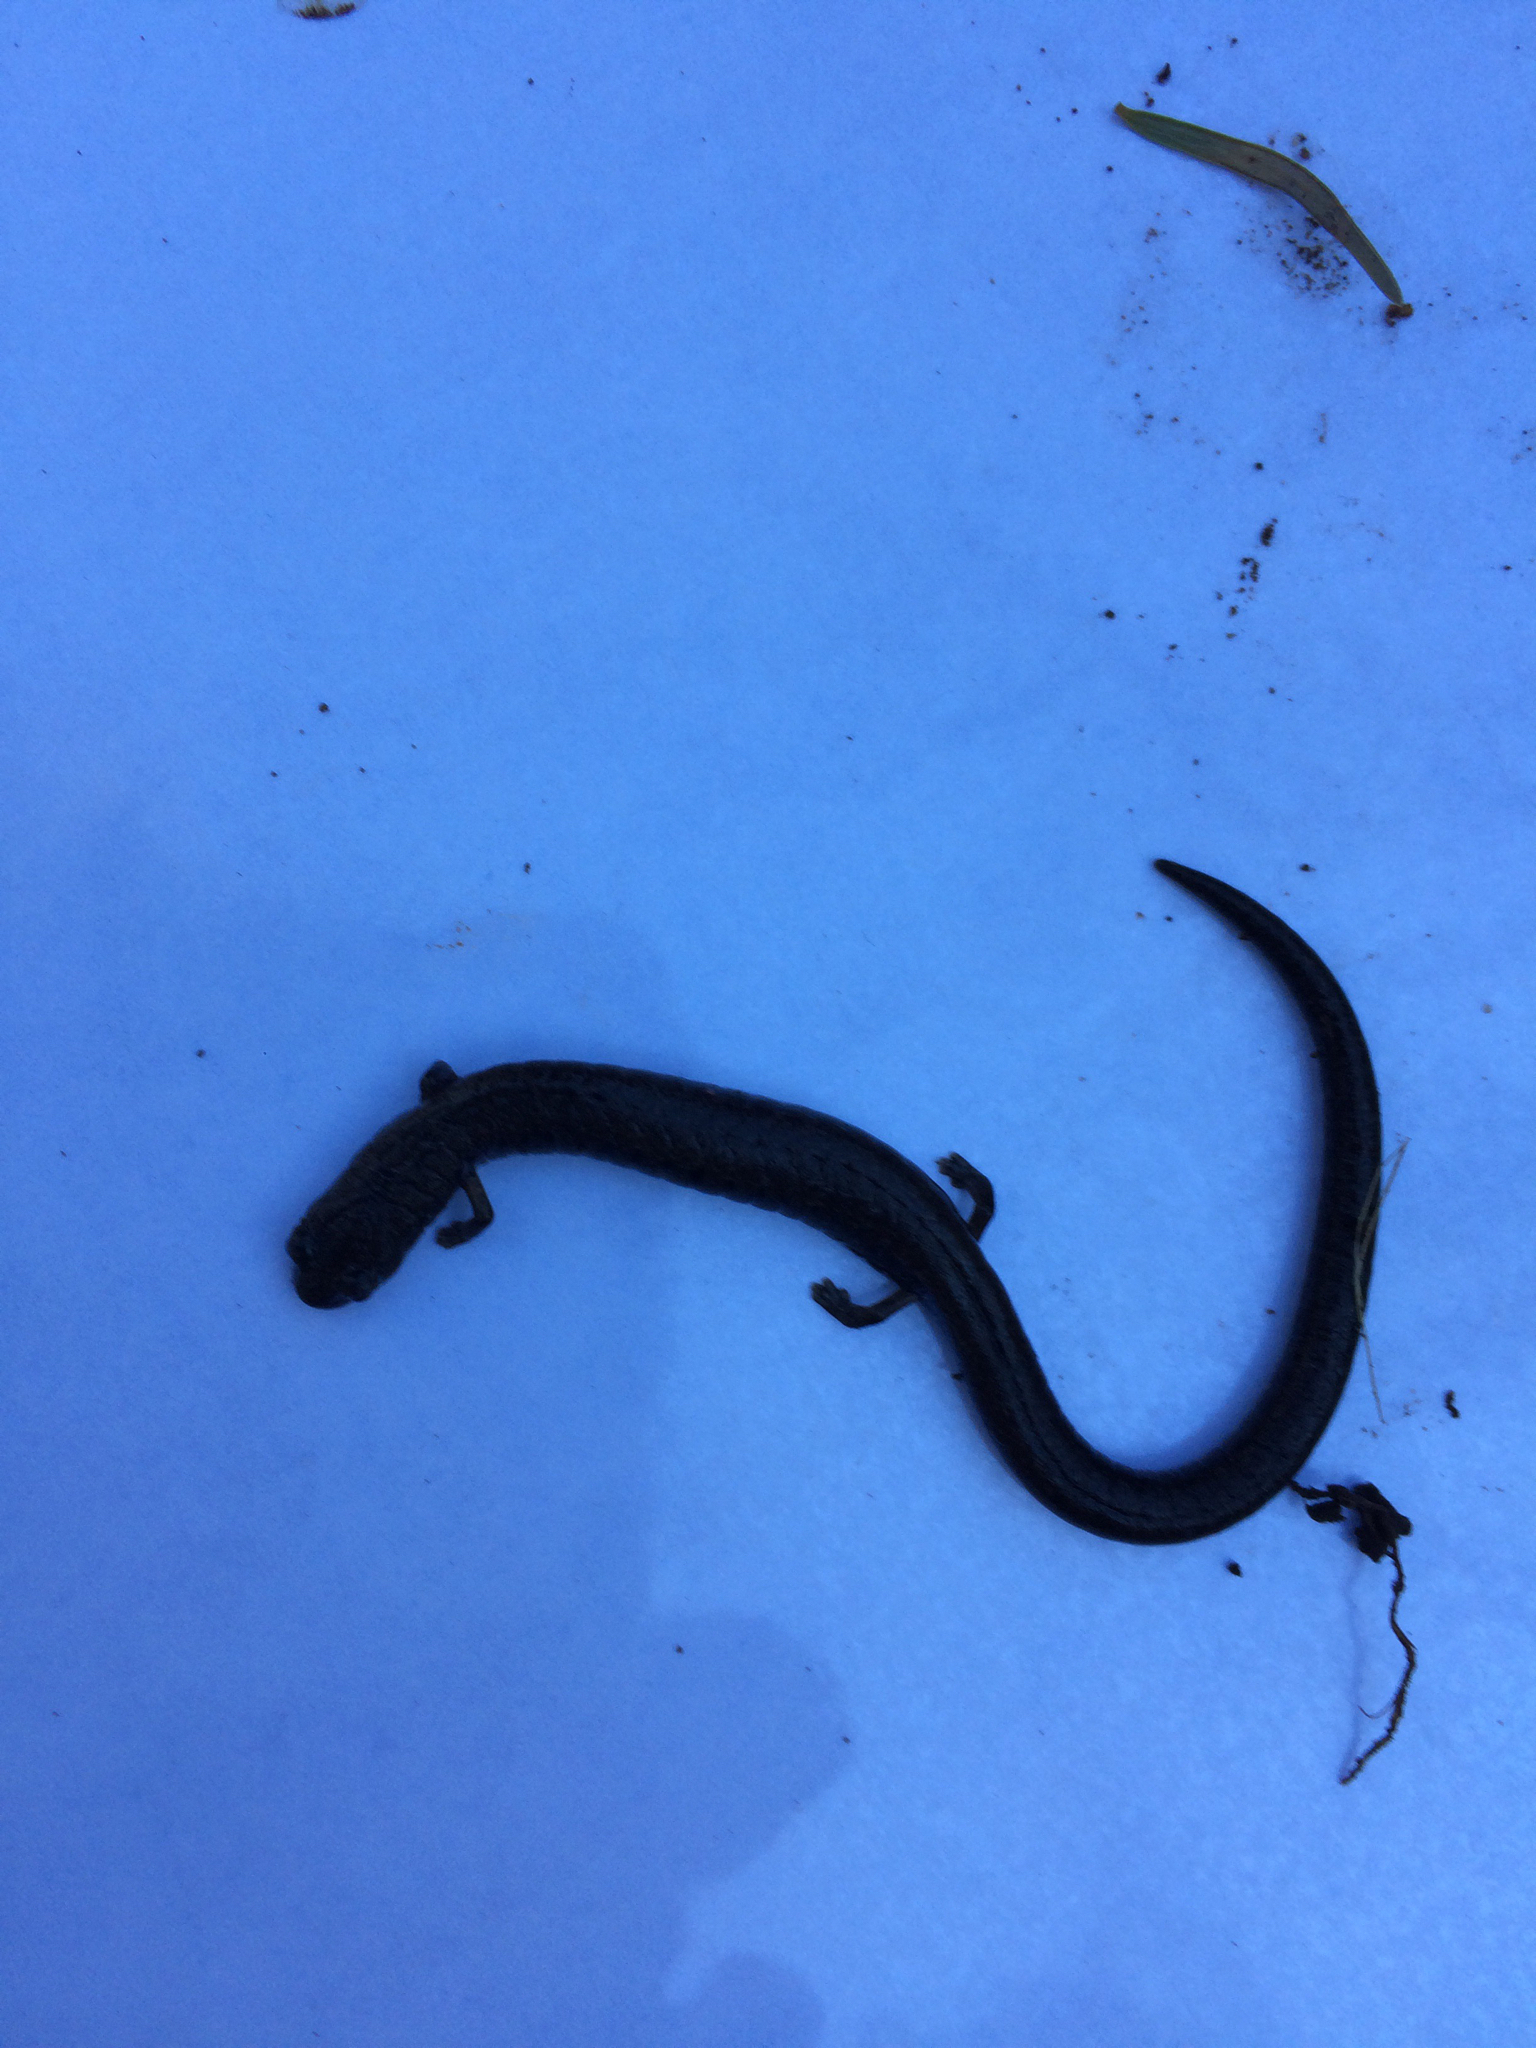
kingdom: Animalia
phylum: Chordata
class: Amphibia
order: Caudata
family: Plethodontidae
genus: Batrachoseps
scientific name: Batrachoseps attenuatus
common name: California slender salamander
